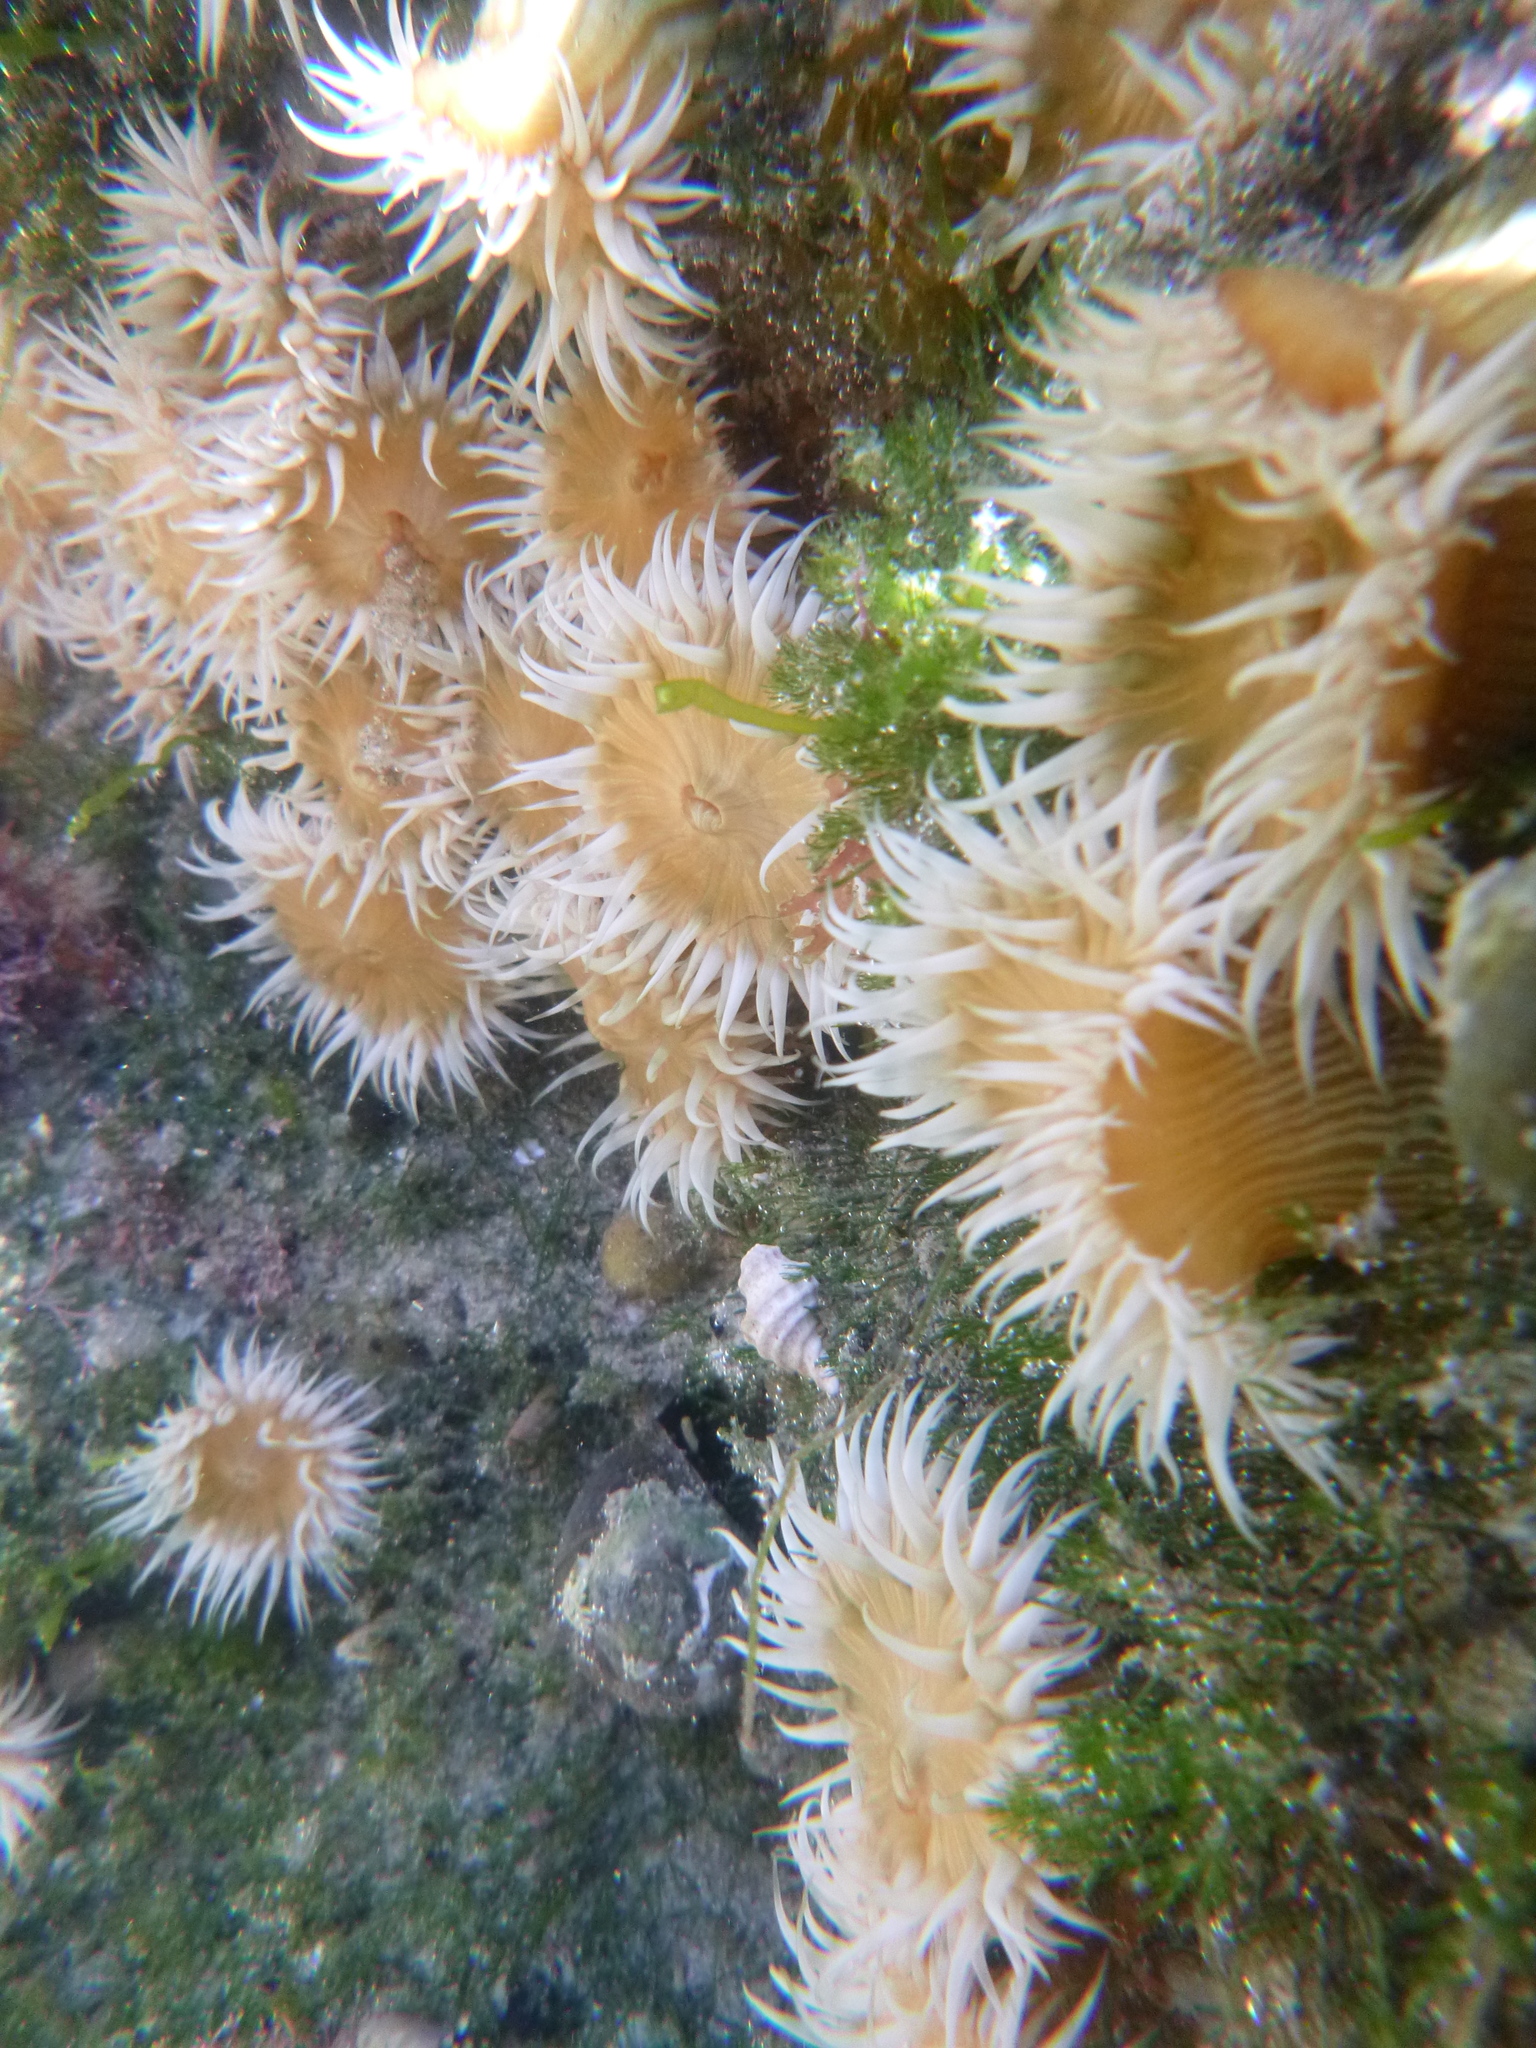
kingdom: Animalia
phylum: Cnidaria
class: Anthozoa
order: Actiniaria
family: Sagartiidae
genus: Anthothoe
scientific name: Anthothoe albocincta
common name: Orange striped anemone
